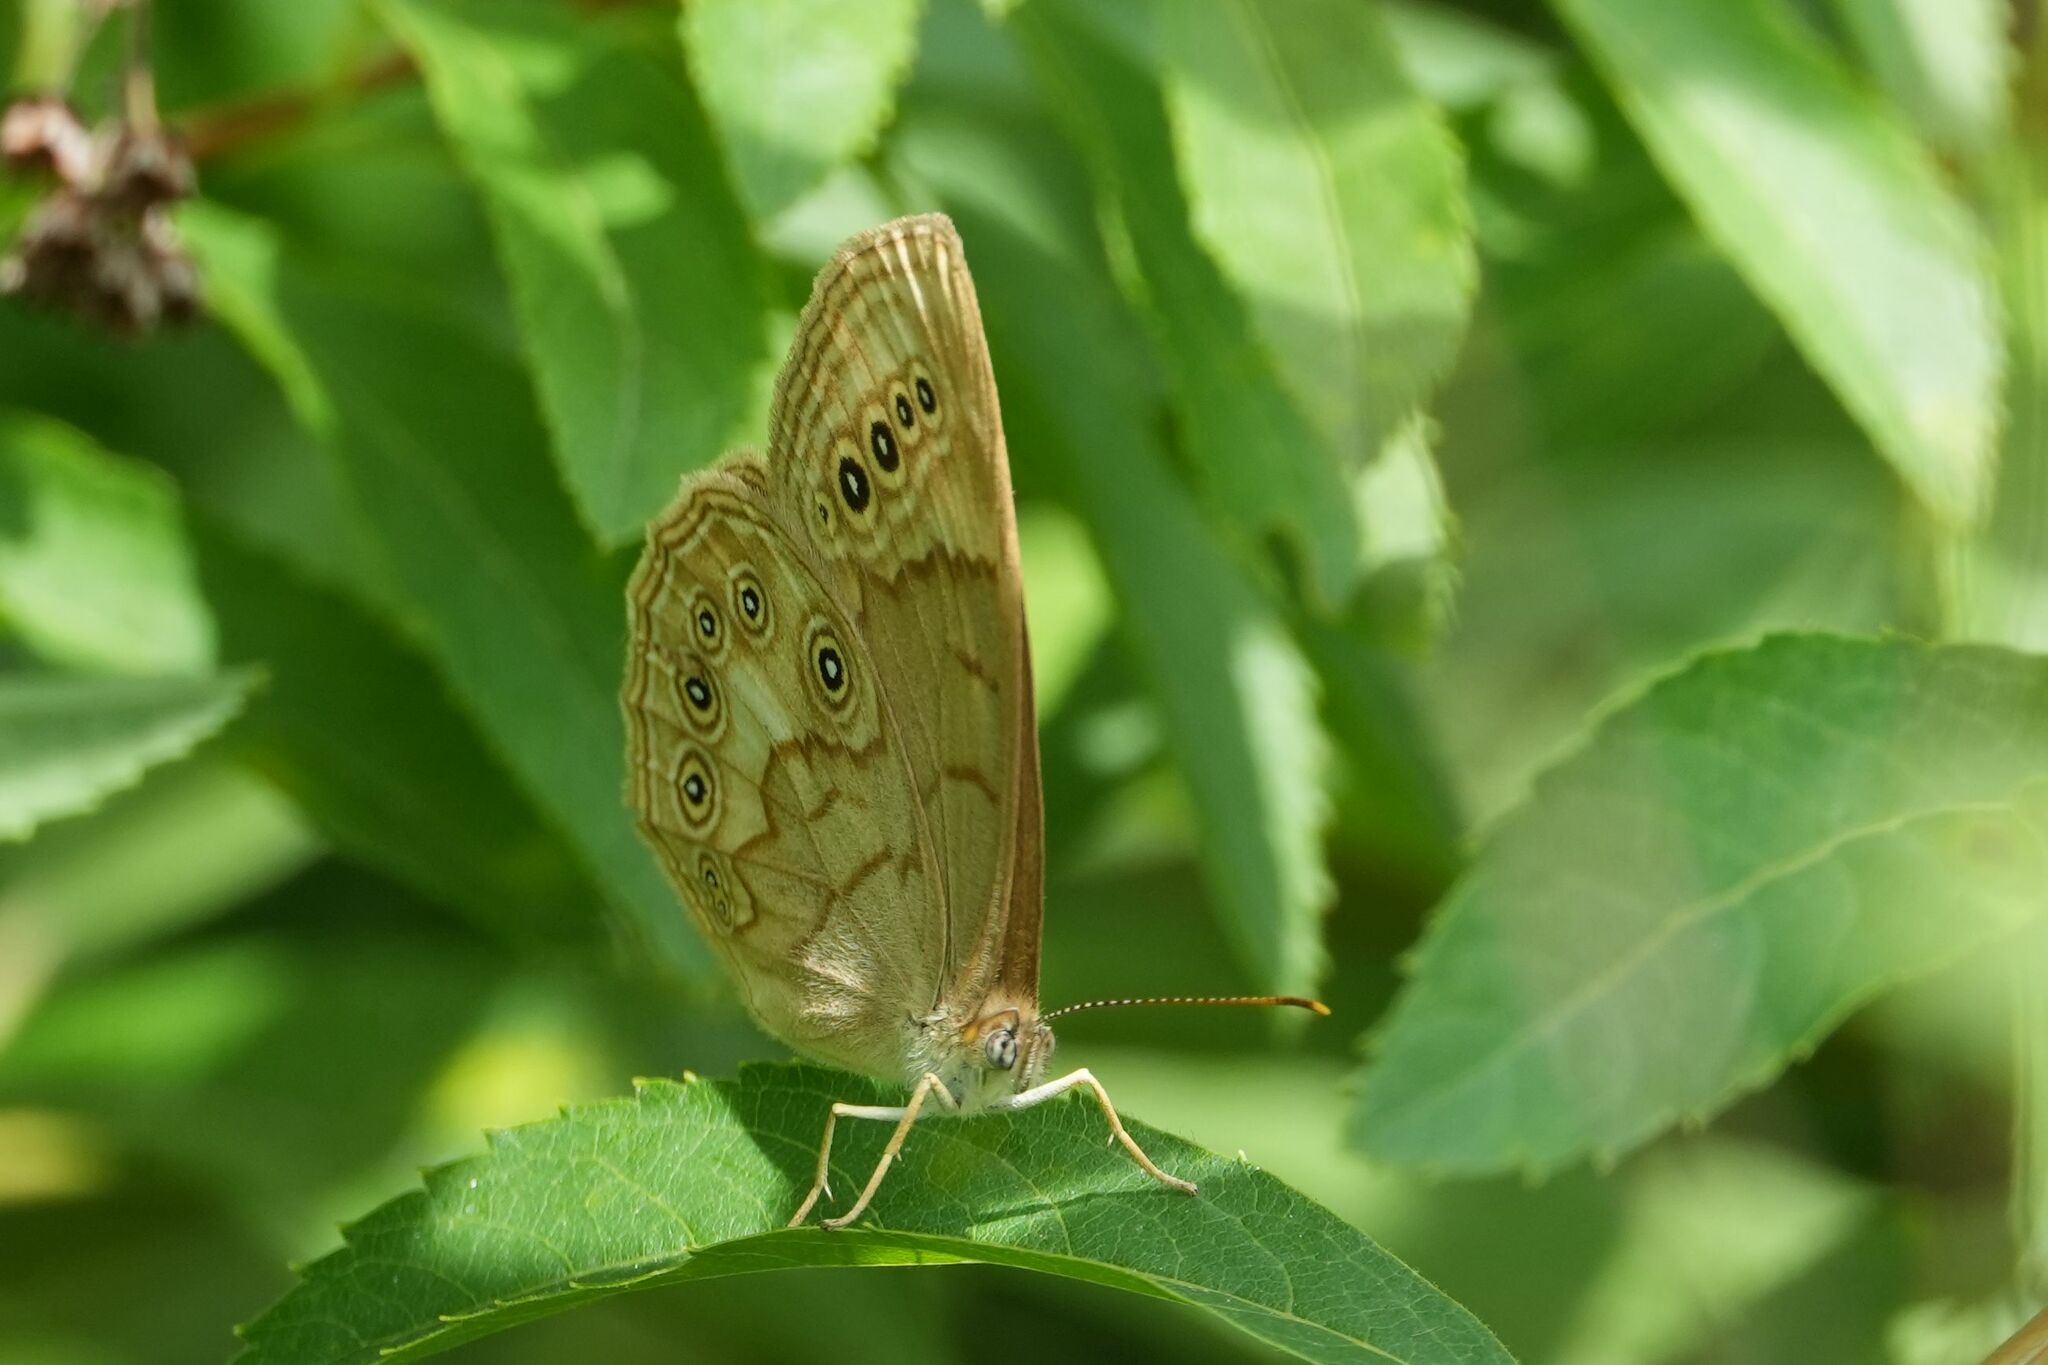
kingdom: Animalia
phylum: Arthropoda
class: Insecta
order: Lepidoptera
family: Nymphalidae
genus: Lethe
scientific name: Lethe eurydice
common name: Eyed brown
